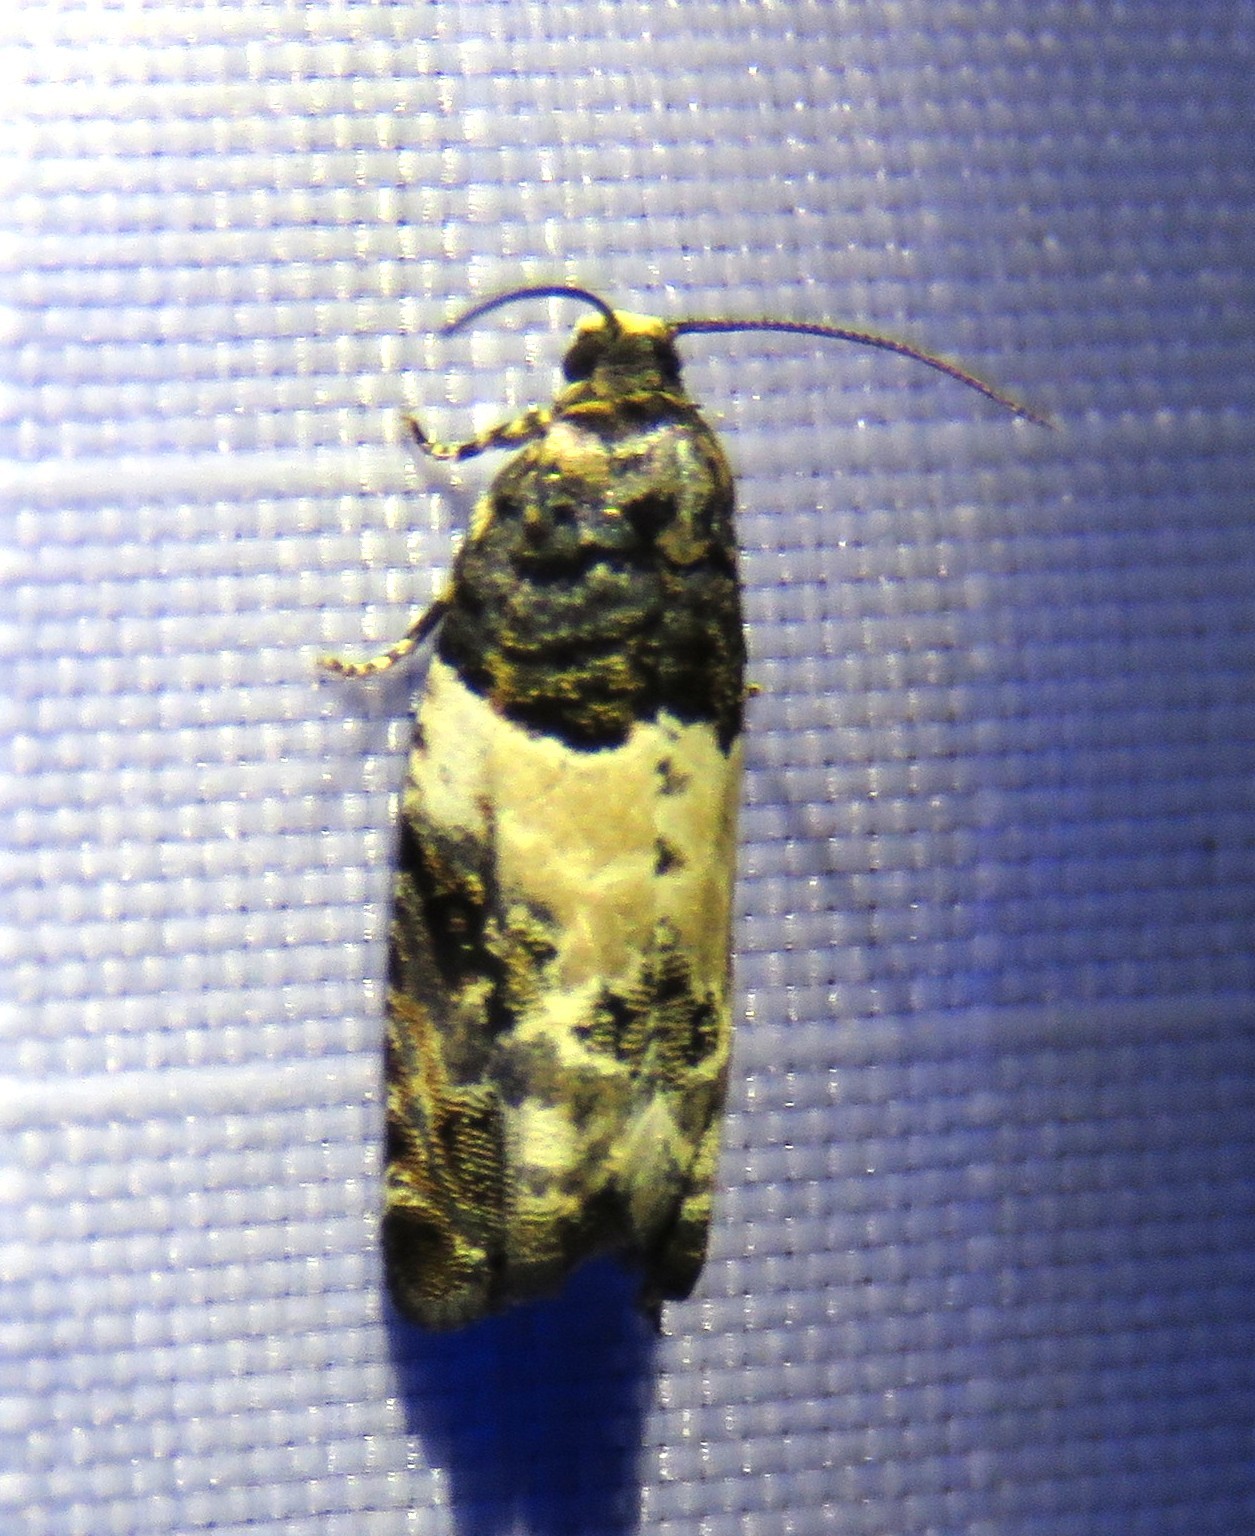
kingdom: Animalia
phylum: Arthropoda
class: Insecta
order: Lepidoptera
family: Tortricidae
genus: Gypsonoma
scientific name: Gypsonoma sociana
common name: White cloaked shoot
